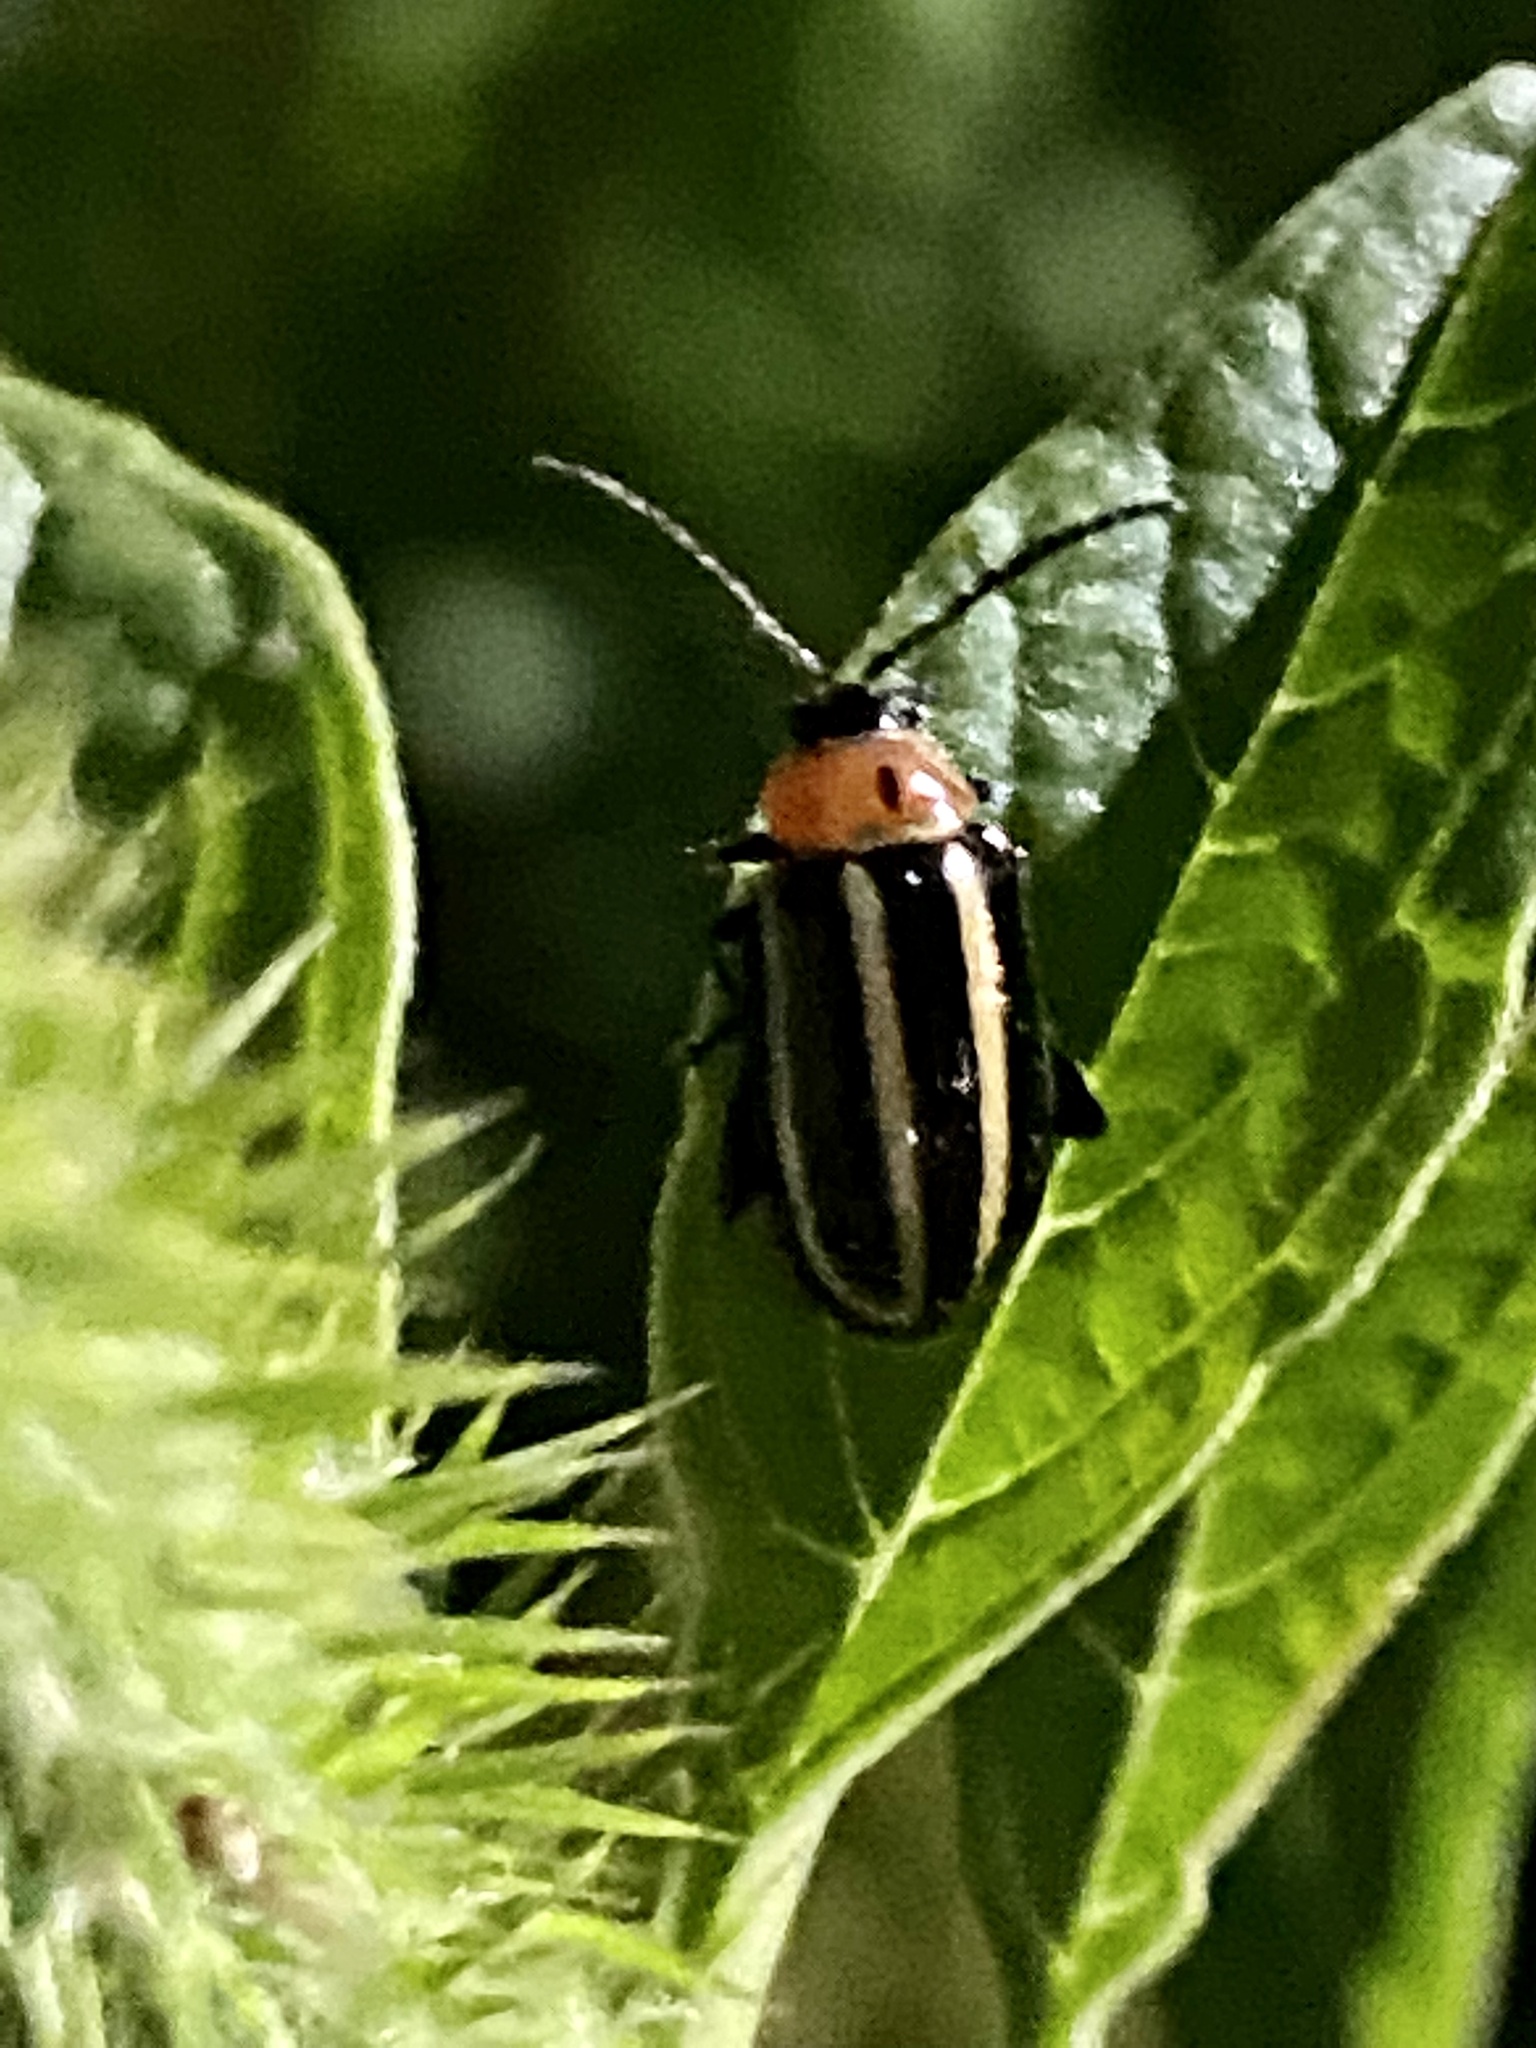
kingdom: Animalia
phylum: Arthropoda
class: Insecta
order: Coleoptera
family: Chrysomelidae
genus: Disonycha
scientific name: Disonycha glabrata
